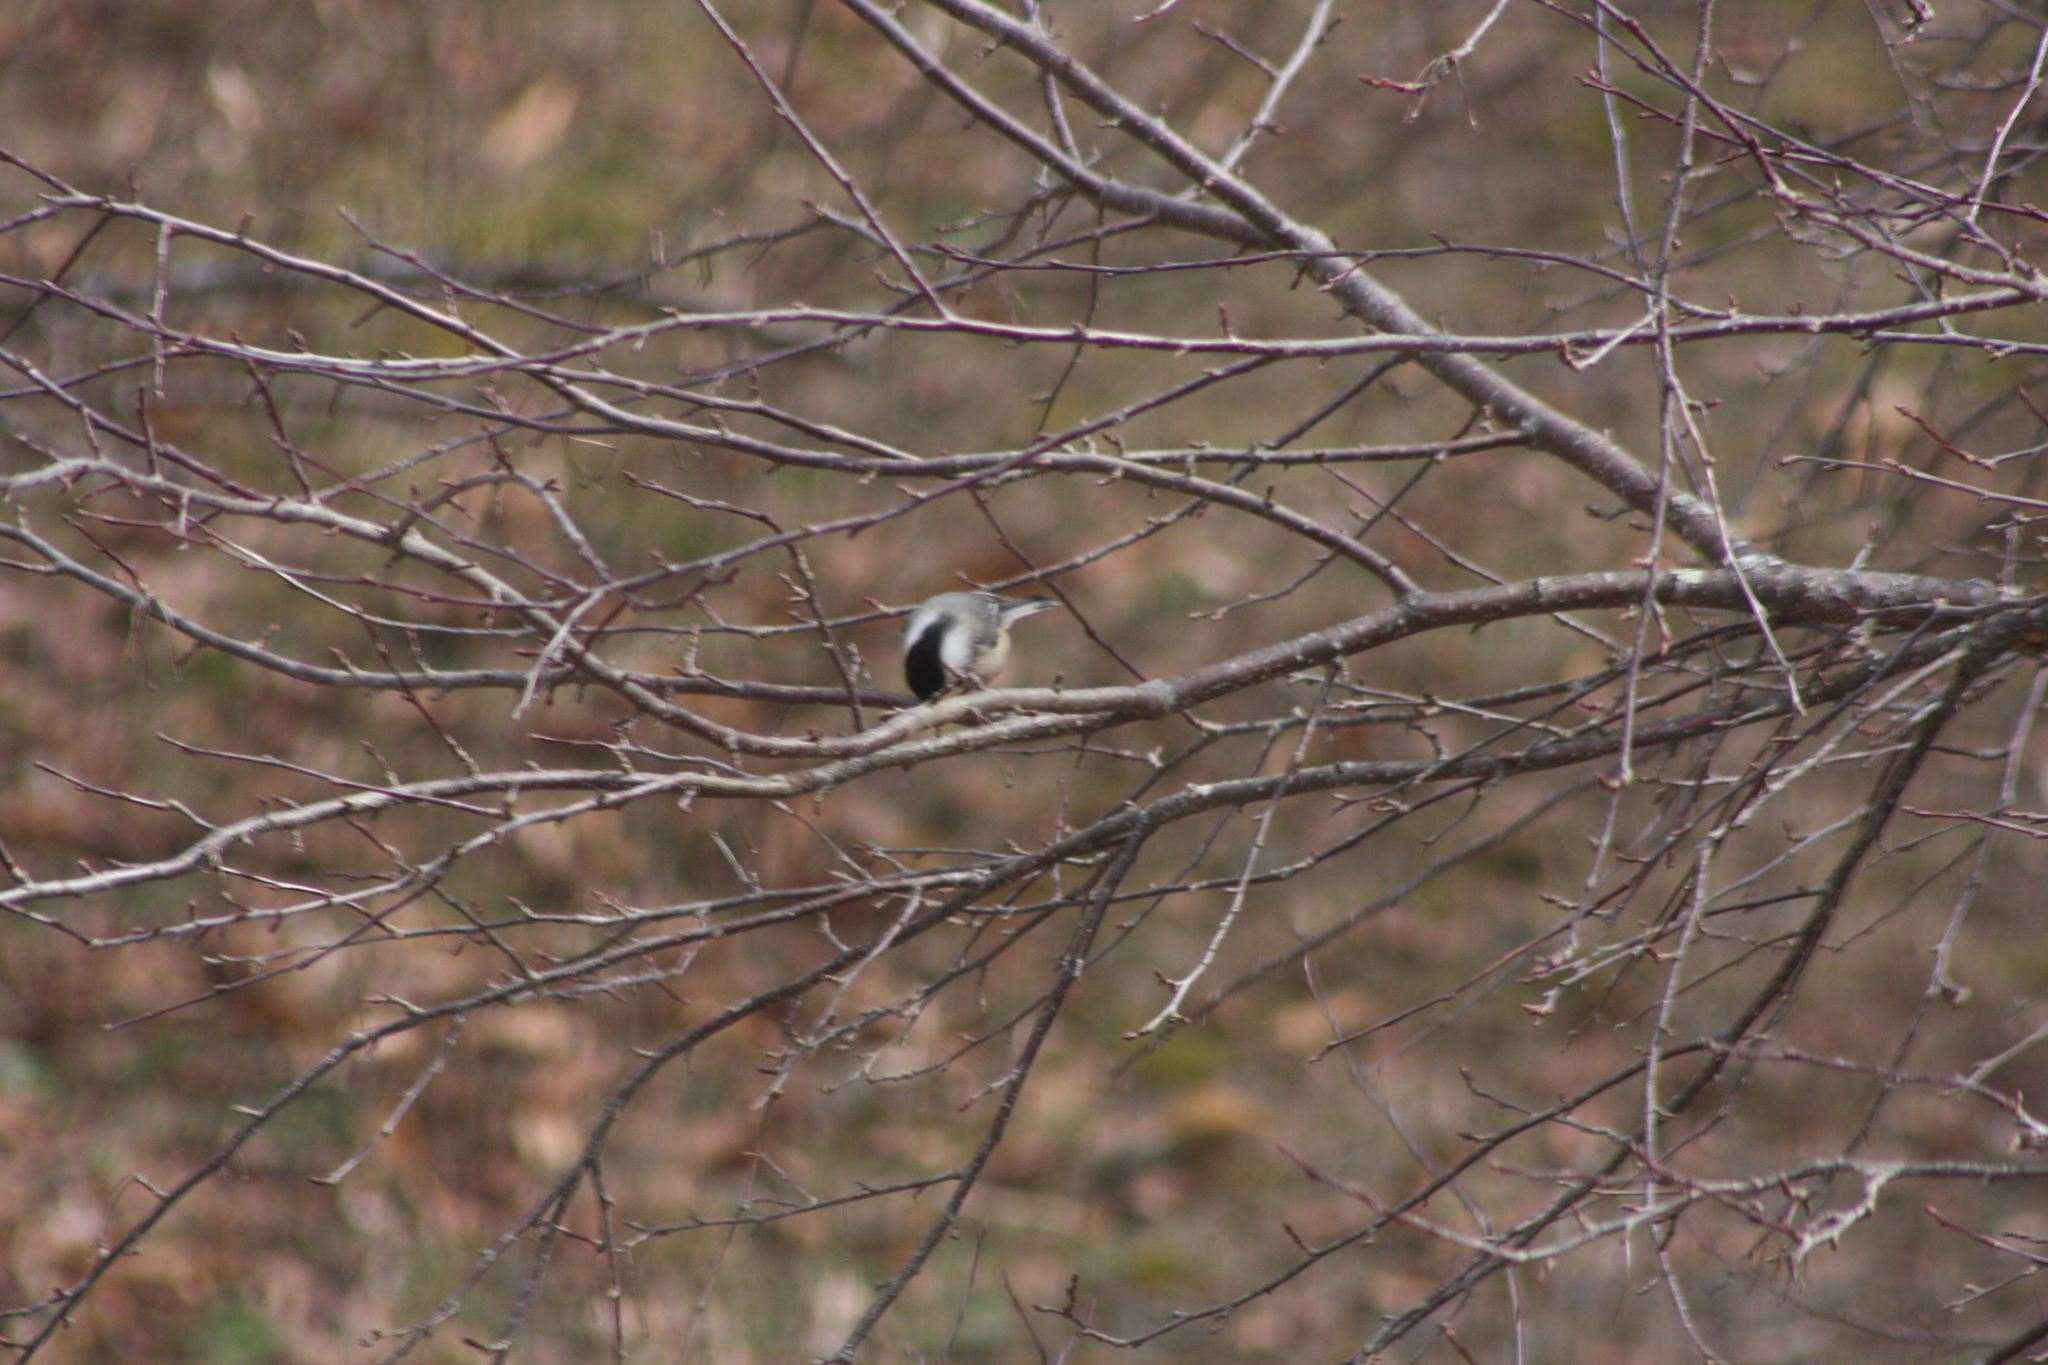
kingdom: Animalia
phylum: Chordata
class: Aves
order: Passeriformes
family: Paridae
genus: Poecile
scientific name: Poecile atricapillus
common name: Black-capped chickadee
